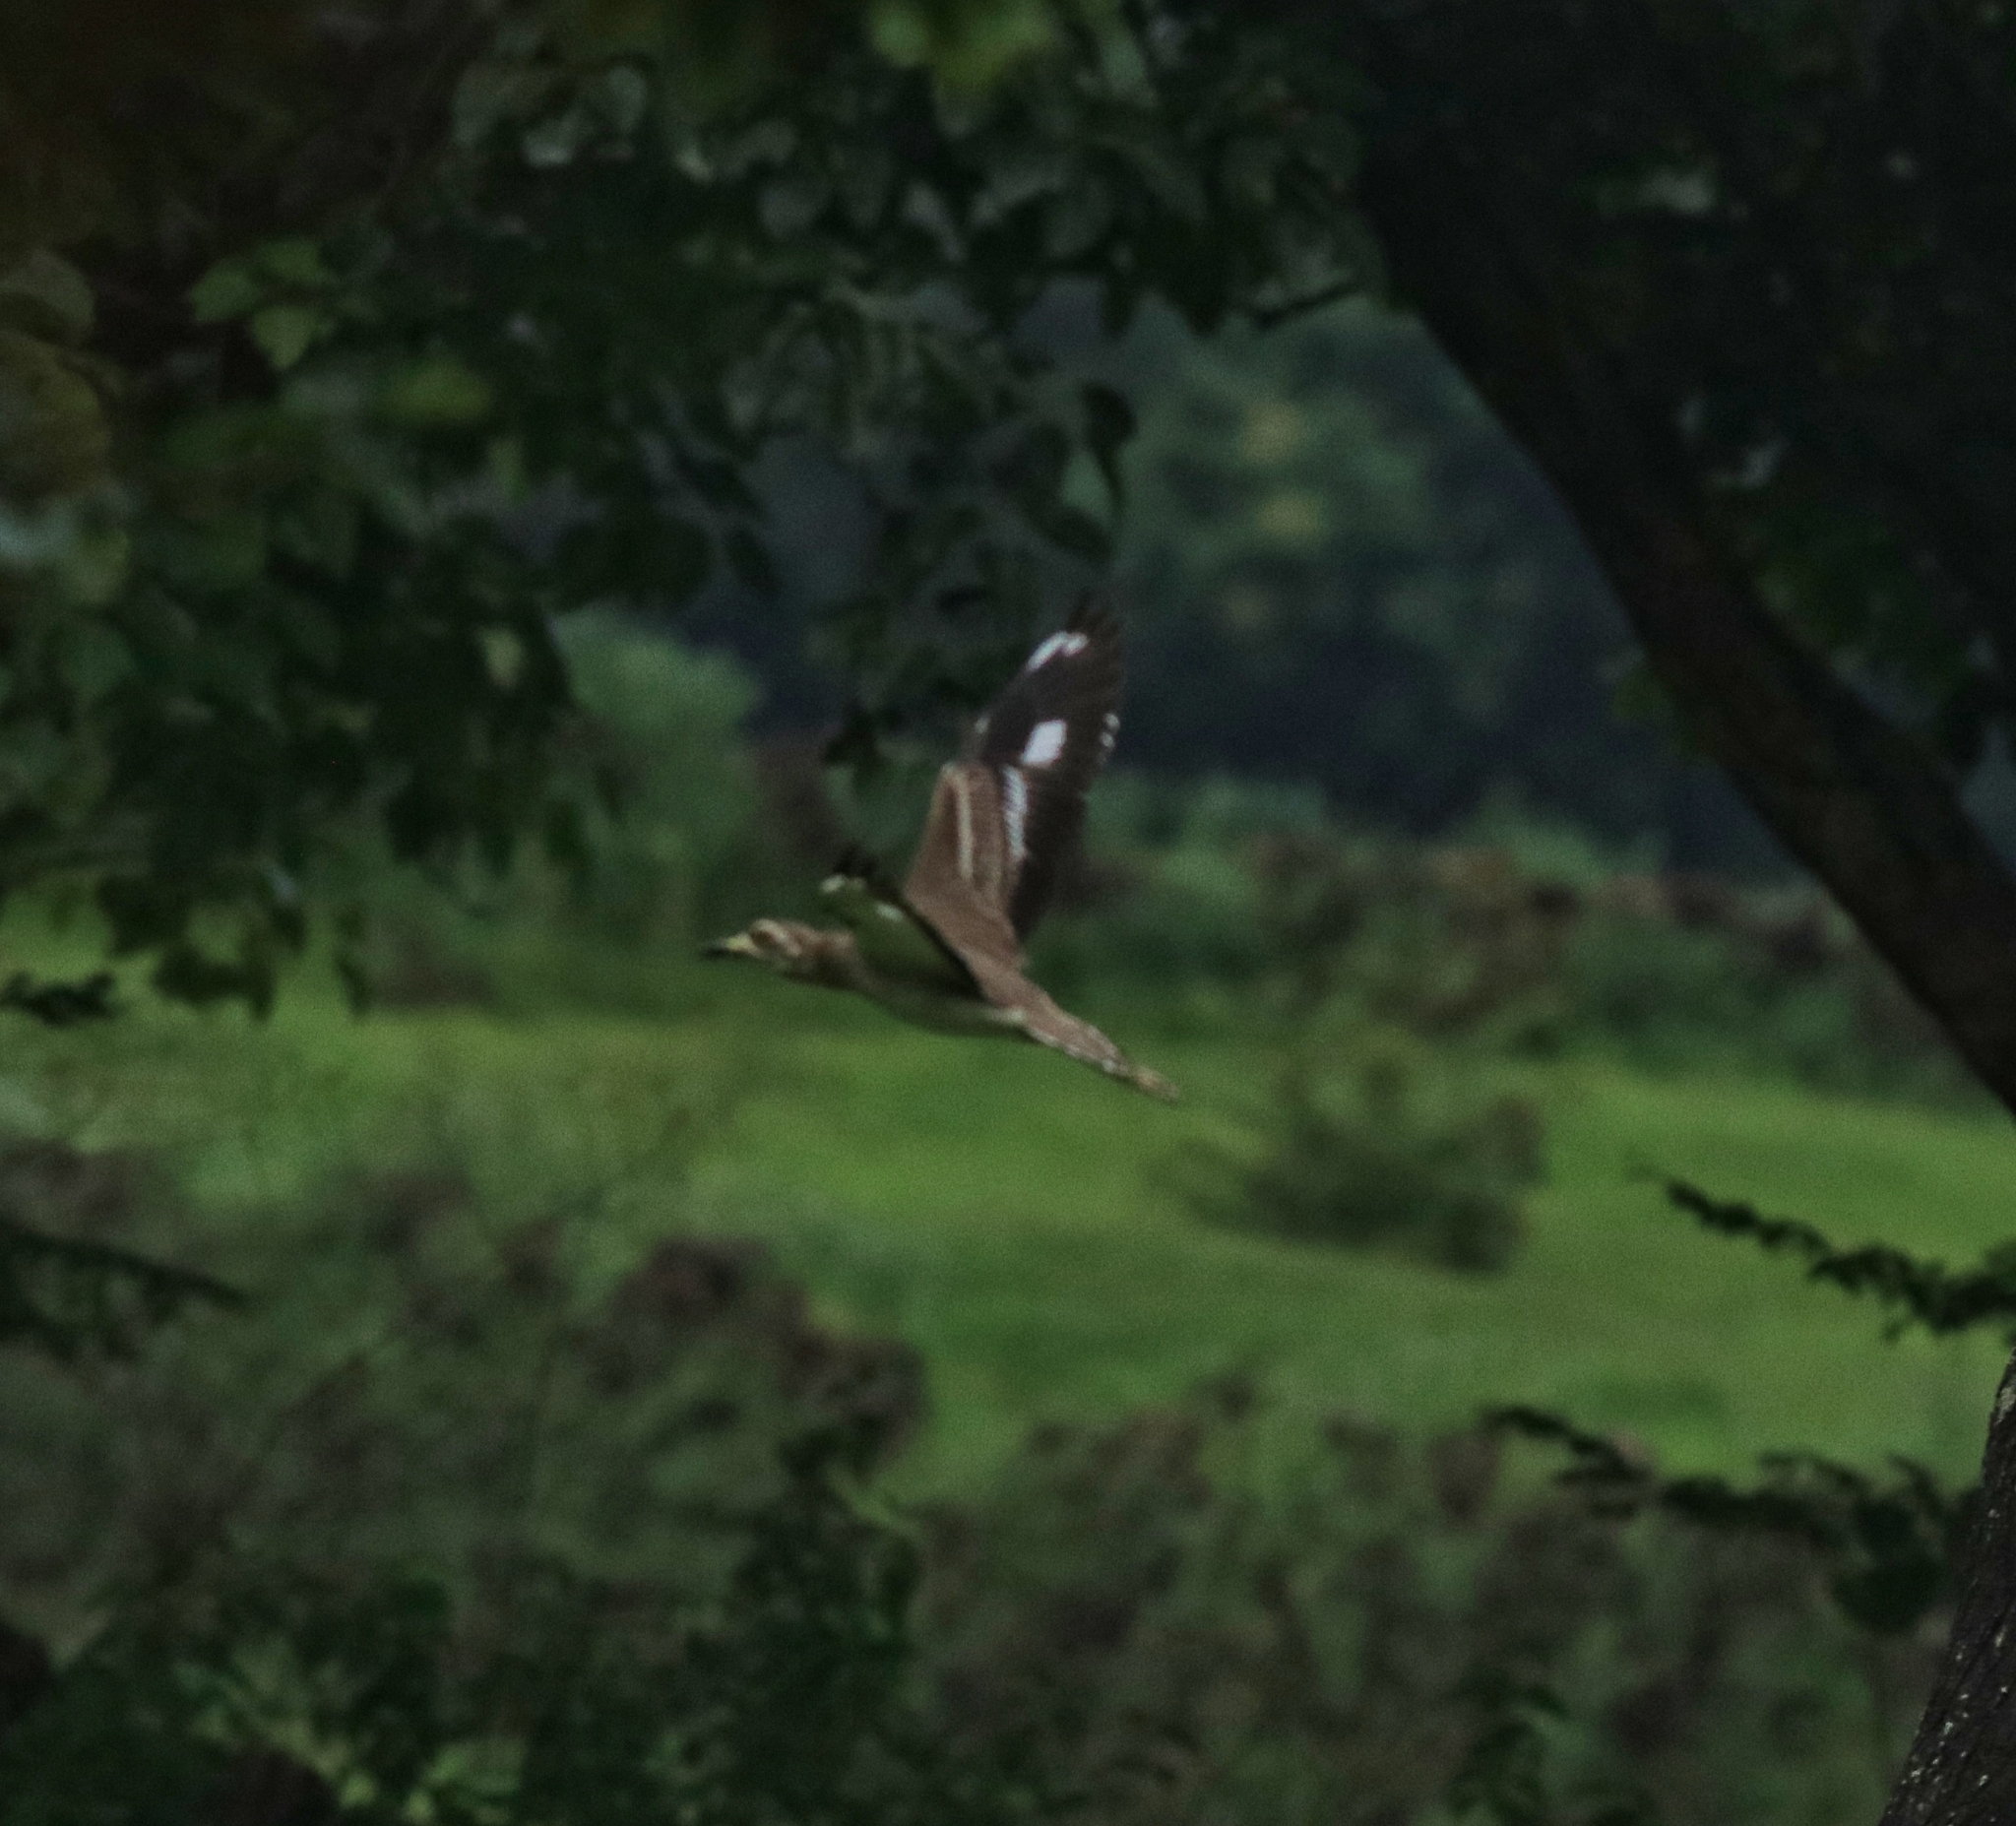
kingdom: Animalia
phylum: Chordata
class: Aves
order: Charadriiformes
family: Burhinidae
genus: Burhinus
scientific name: Burhinus indicus
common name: Indian thick-knee
